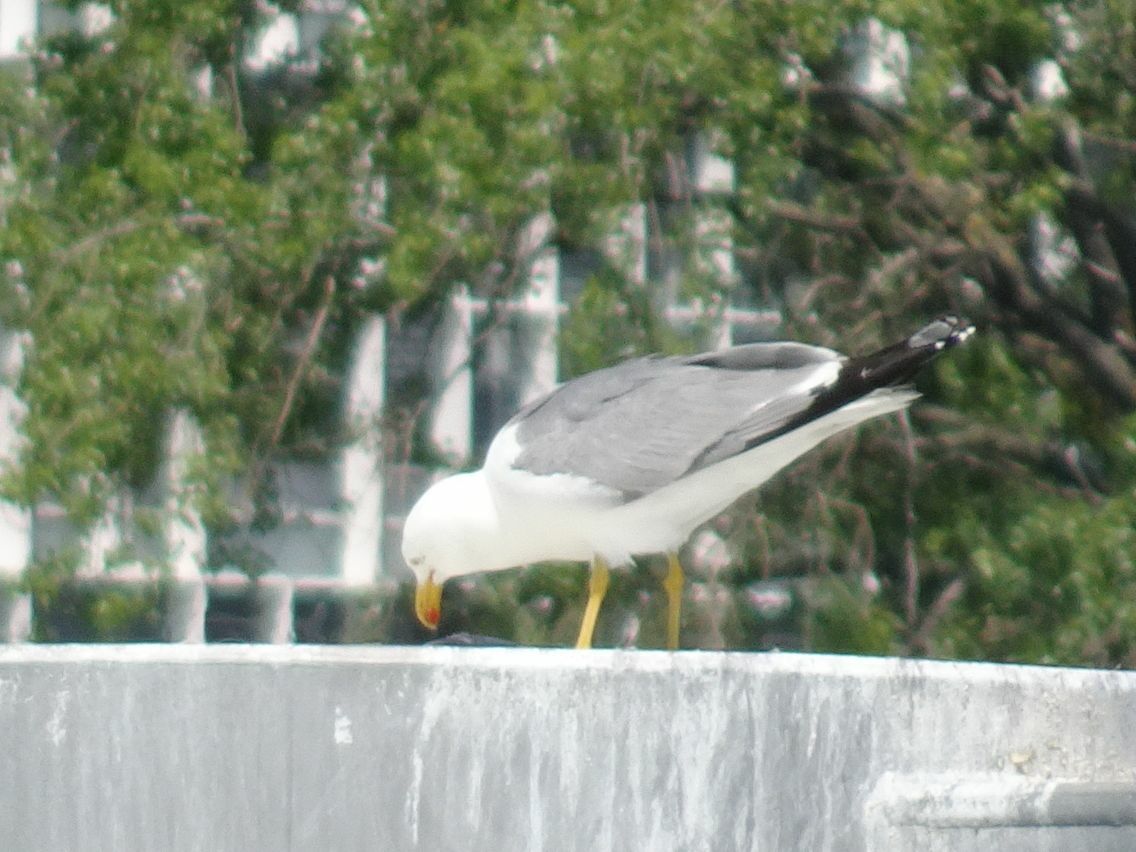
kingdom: Animalia
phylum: Chordata
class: Aves
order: Charadriiformes
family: Laridae
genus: Larus
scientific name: Larus michahellis
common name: Yellow-legged gull
